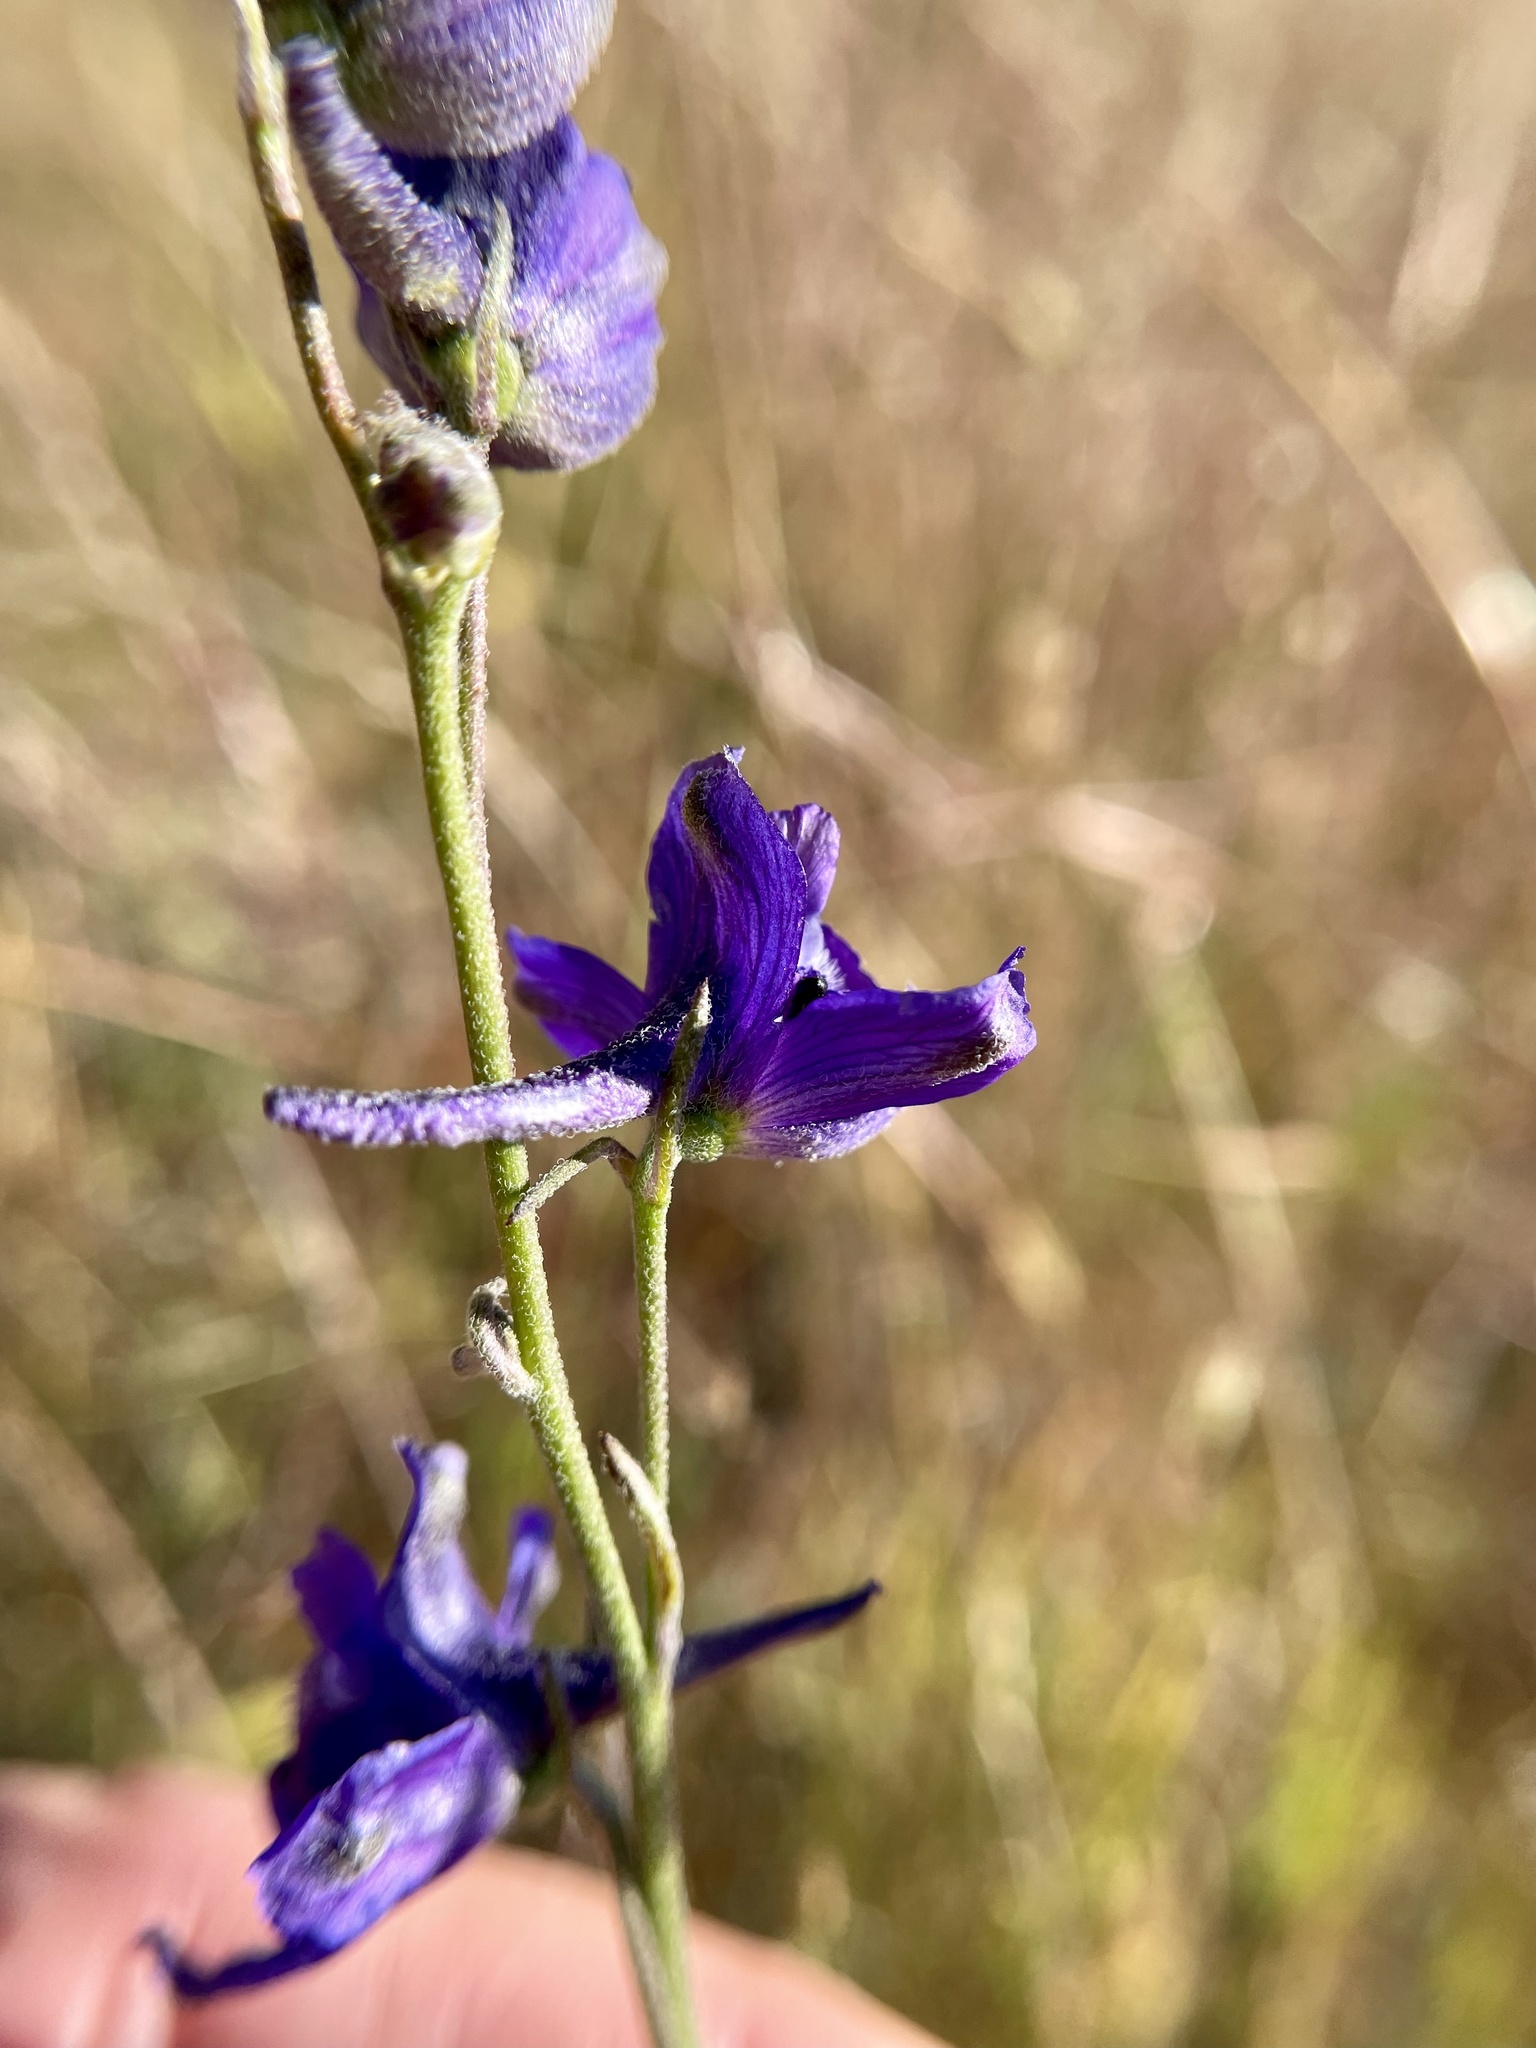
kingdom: Plantae
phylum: Tracheophyta
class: Magnoliopsida
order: Ranunculales
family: Ranunculaceae
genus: Delphinium
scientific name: Delphinium hesperium
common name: Western larkspur
